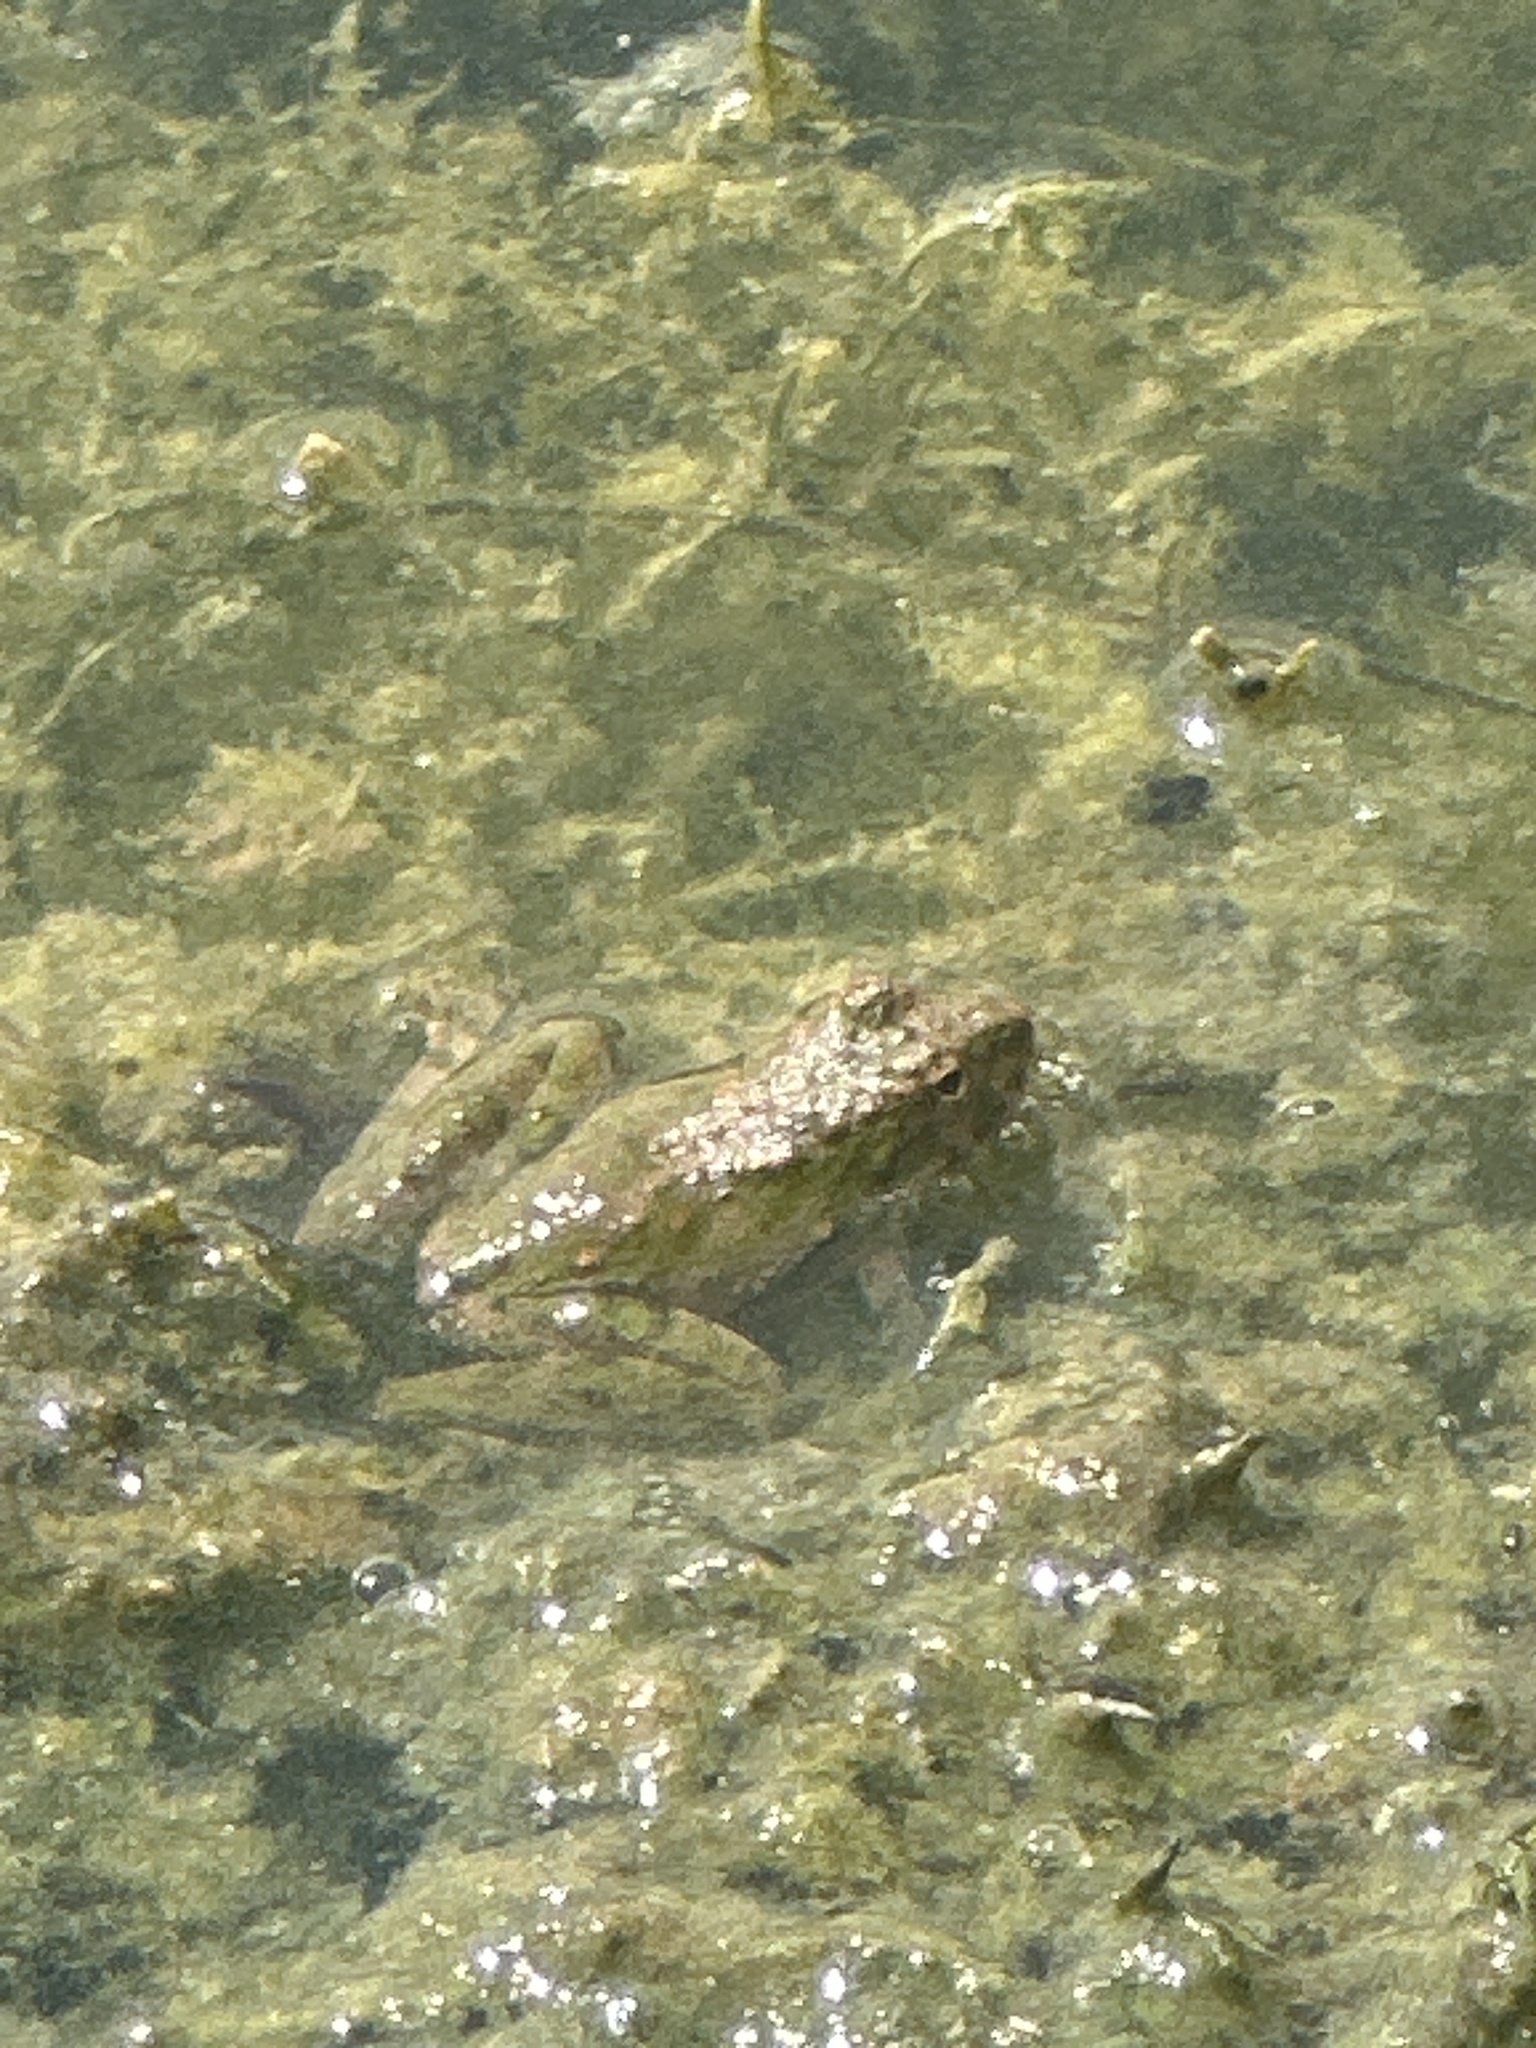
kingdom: Animalia
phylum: Chordata
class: Amphibia
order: Anura
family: Hylidae
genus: Acris
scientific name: Acris blanchardi
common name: Blanchard's cricket frog
